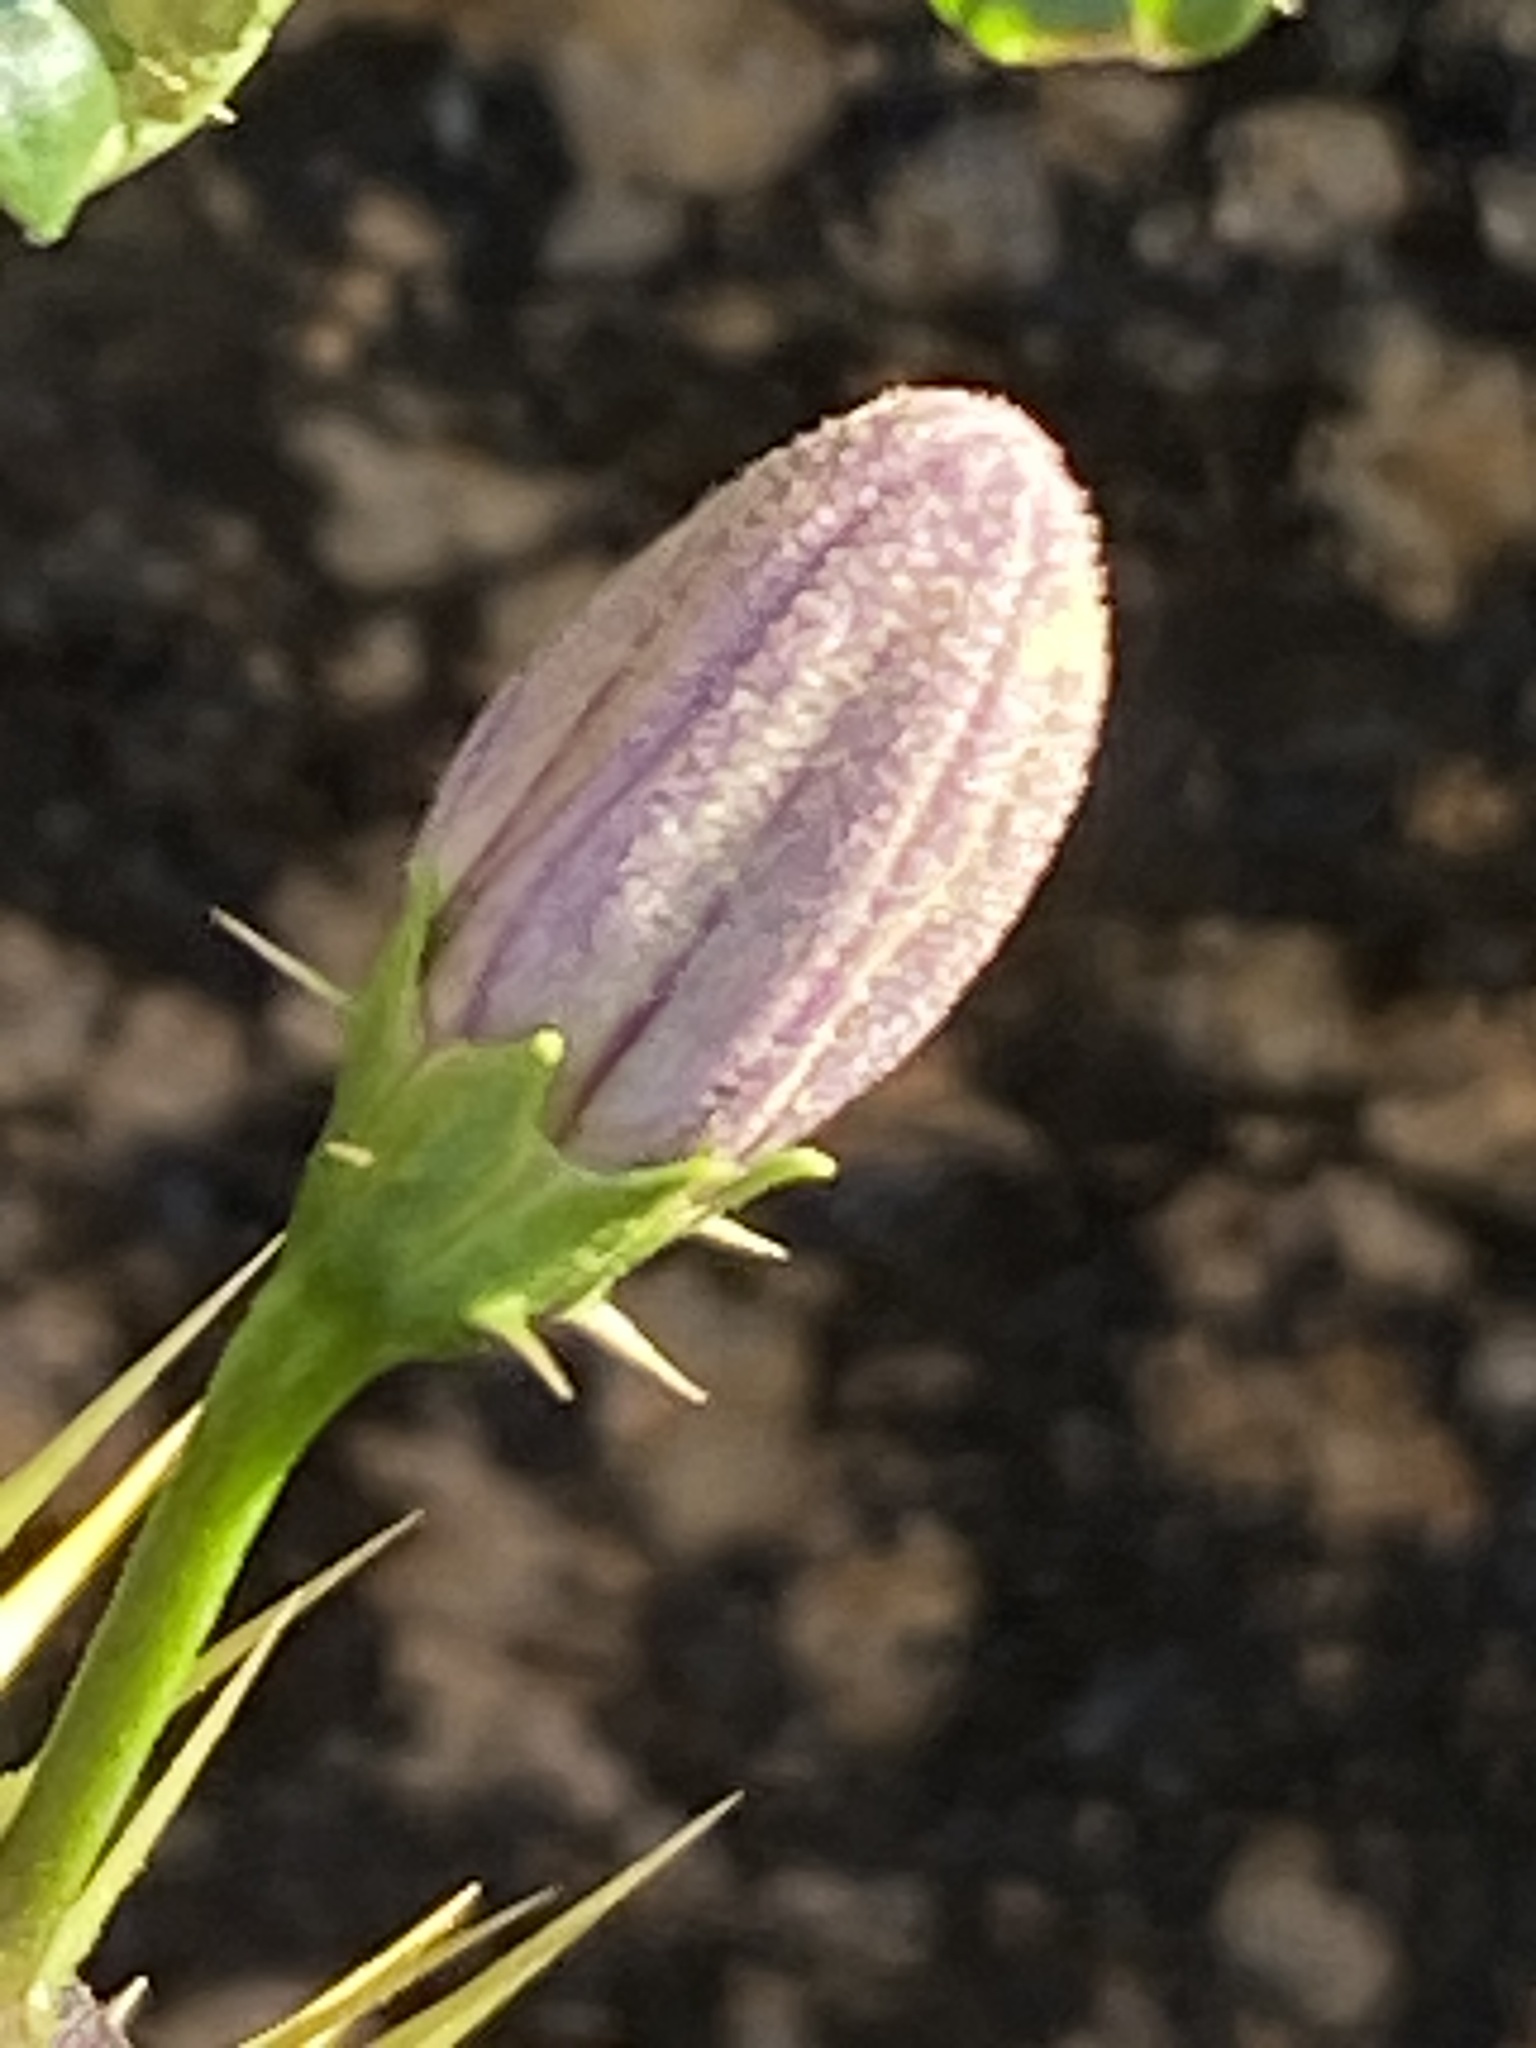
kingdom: Plantae
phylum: Tracheophyta
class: Magnoliopsida
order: Solanales
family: Solanaceae
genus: Solanum
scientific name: Solanum humile
